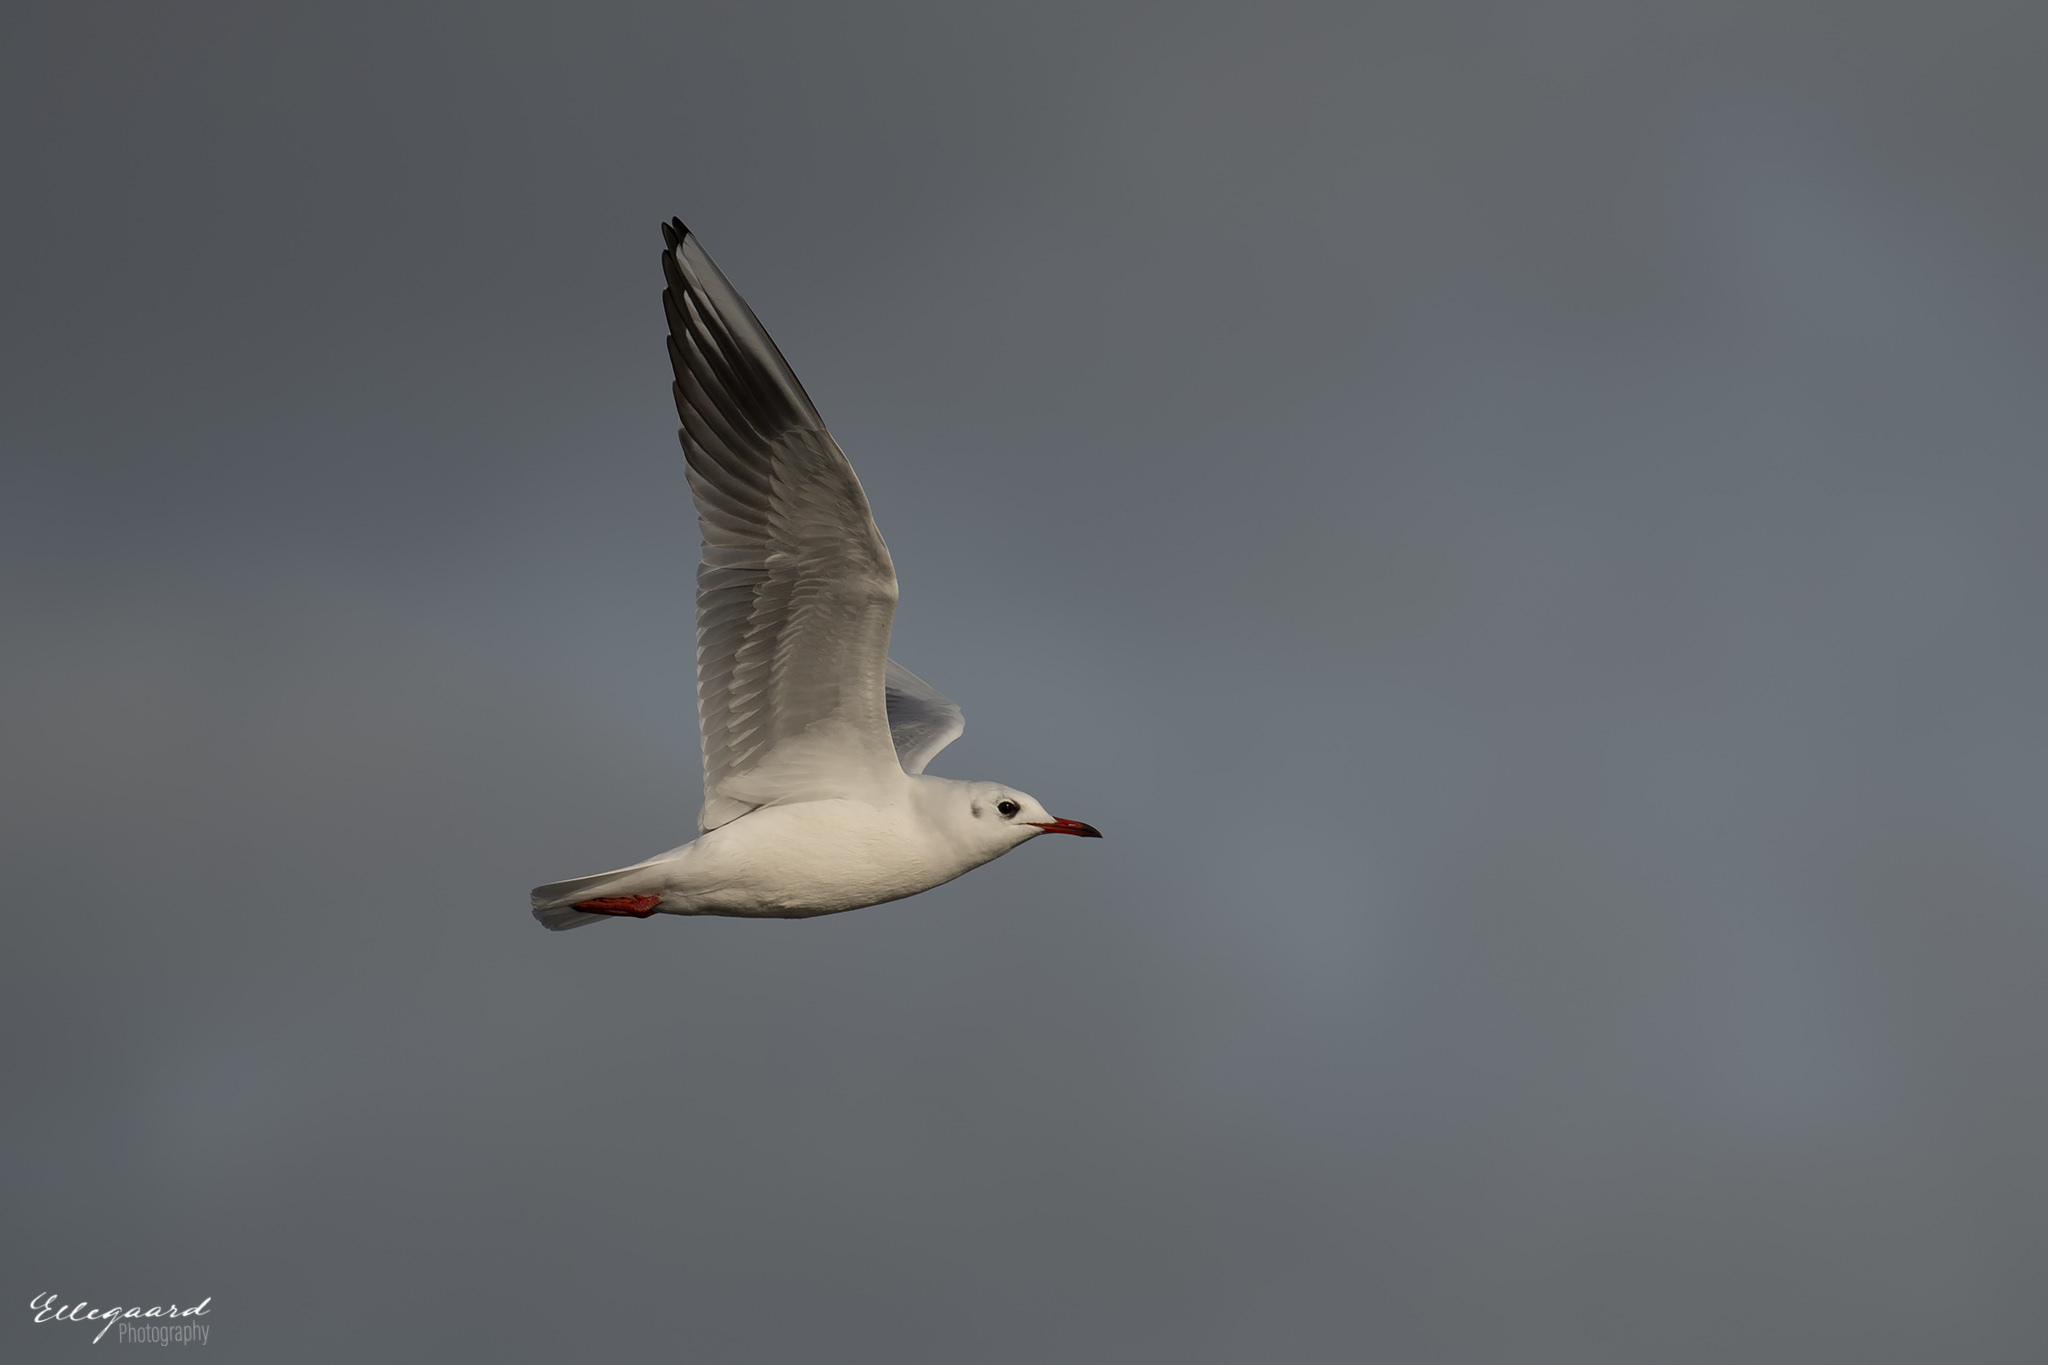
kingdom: Animalia
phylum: Chordata
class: Aves
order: Charadriiformes
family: Laridae
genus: Chroicocephalus
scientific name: Chroicocephalus ridibundus
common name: Black-headed gull
